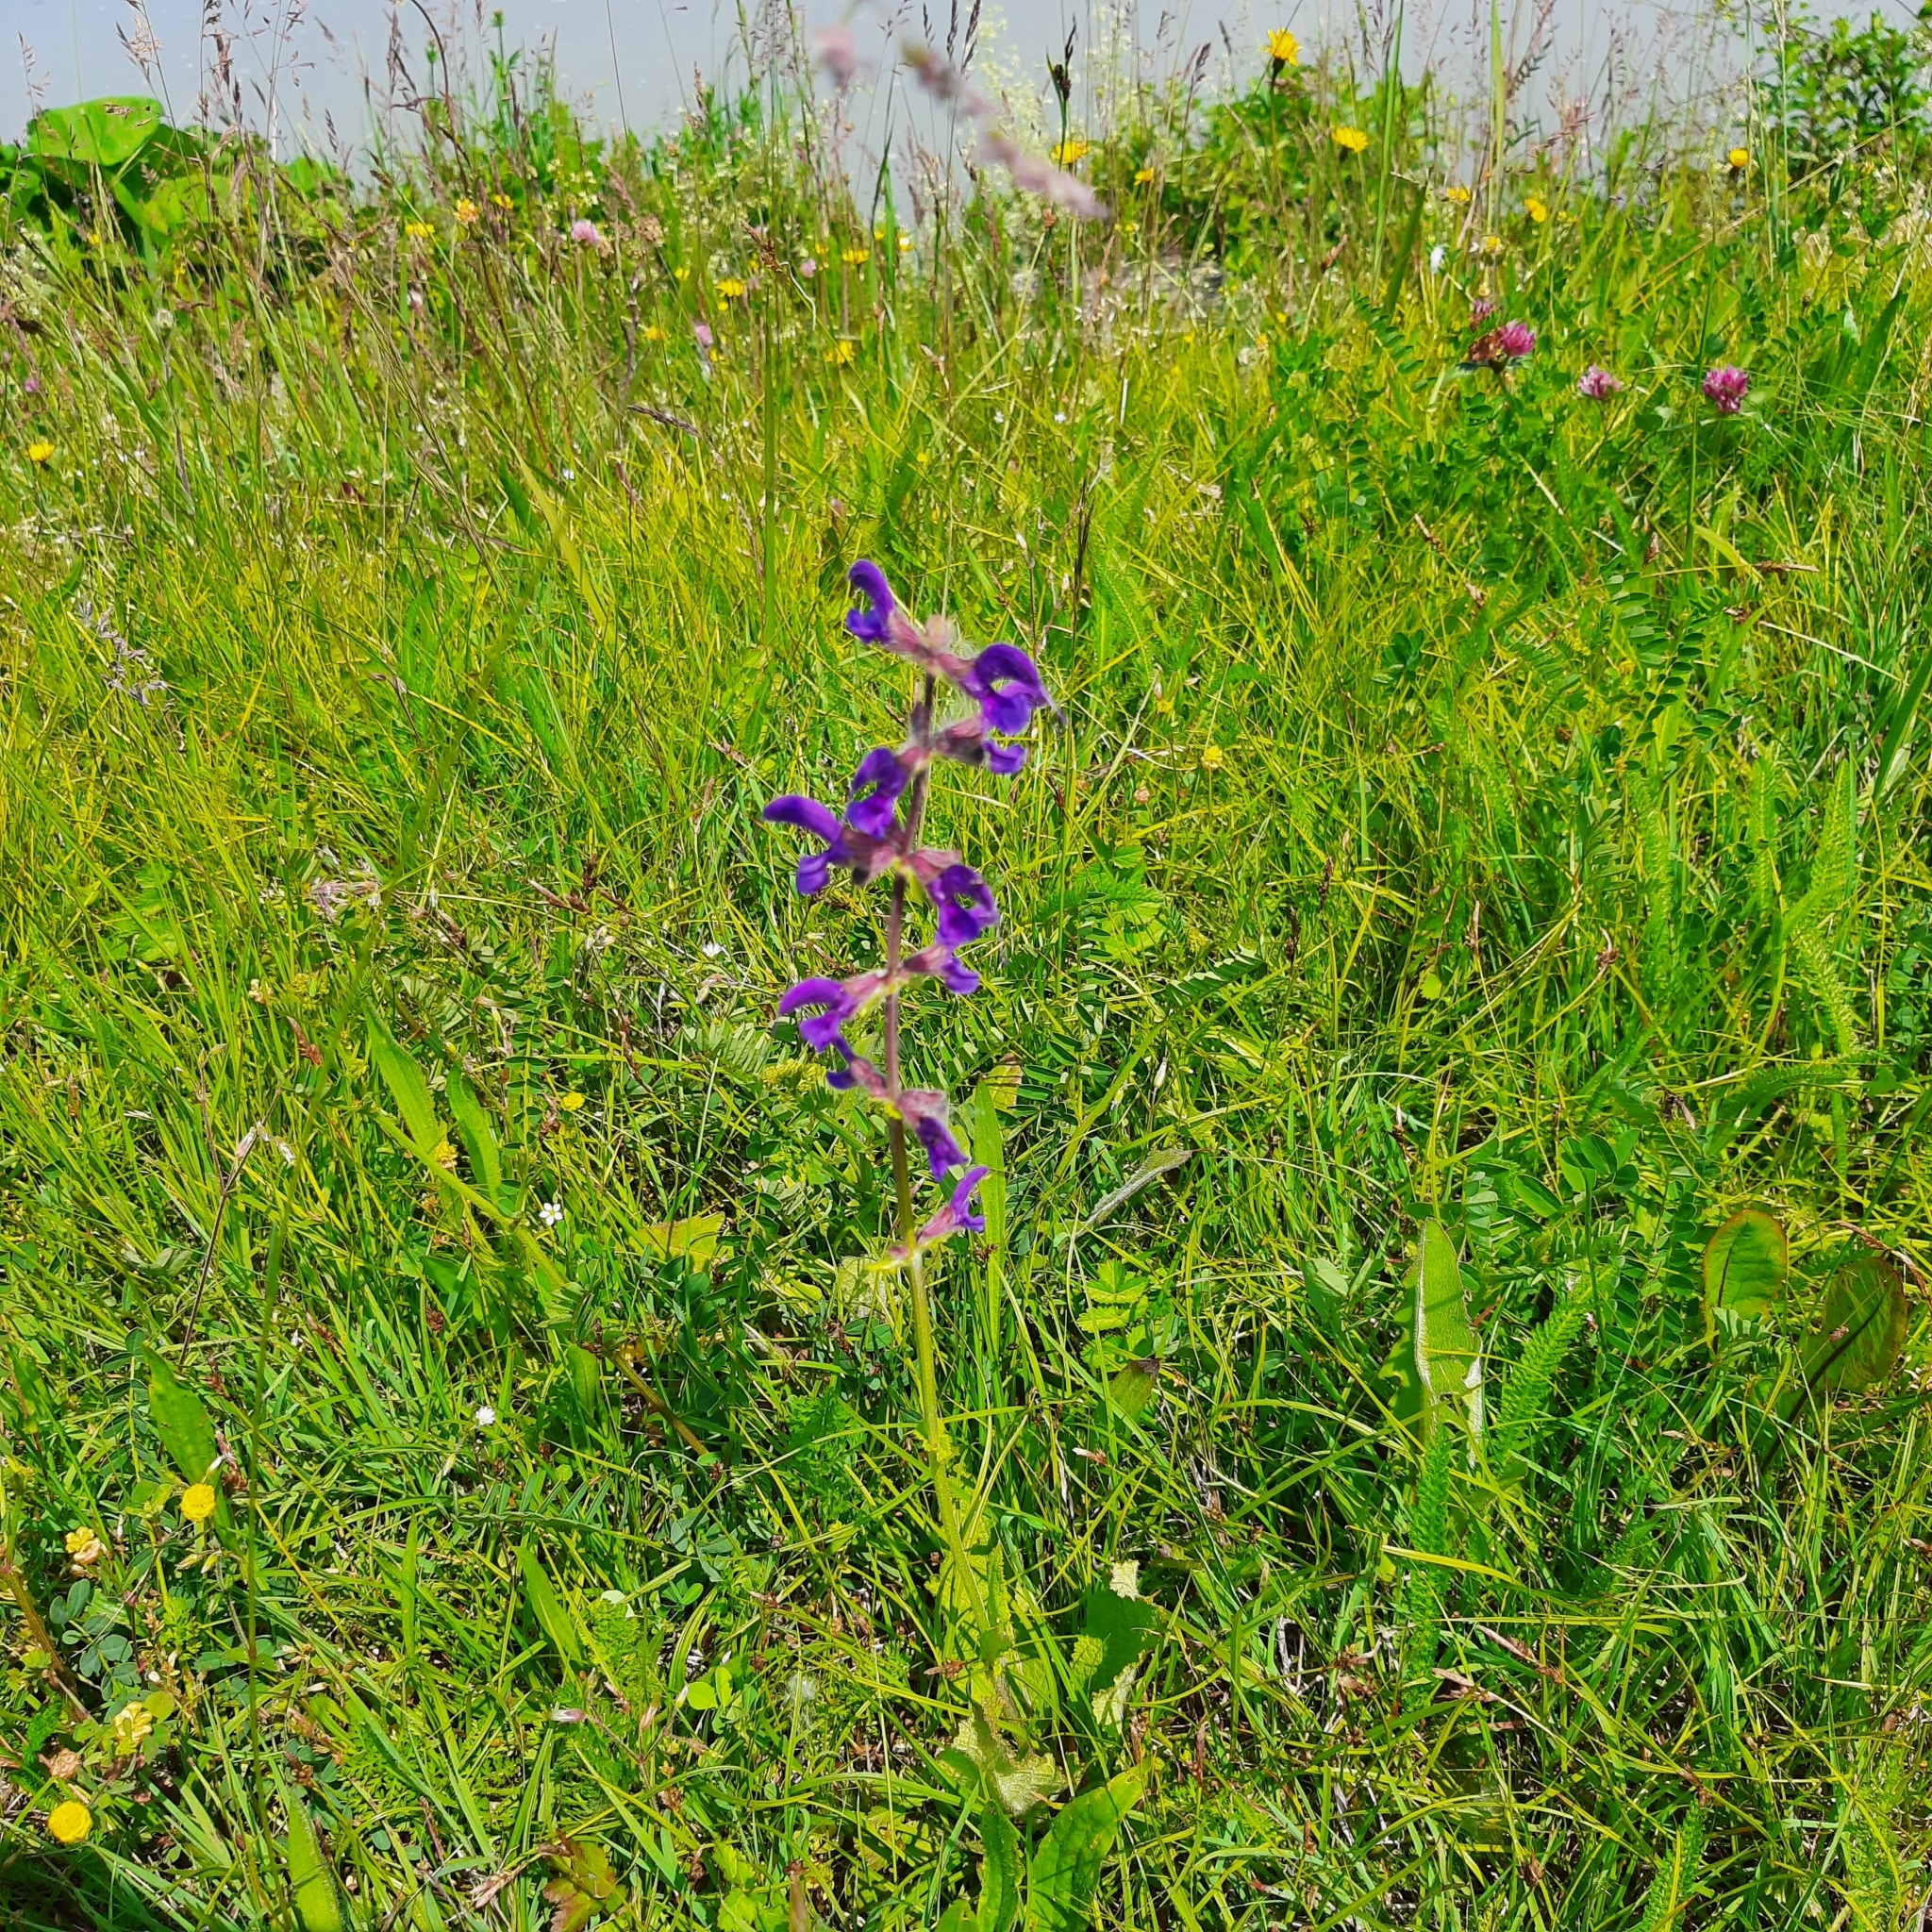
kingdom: Plantae
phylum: Tracheophyta
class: Magnoliopsida
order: Lamiales
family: Lamiaceae
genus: Salvia
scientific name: Salvia pratensis
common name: Meadow sage
